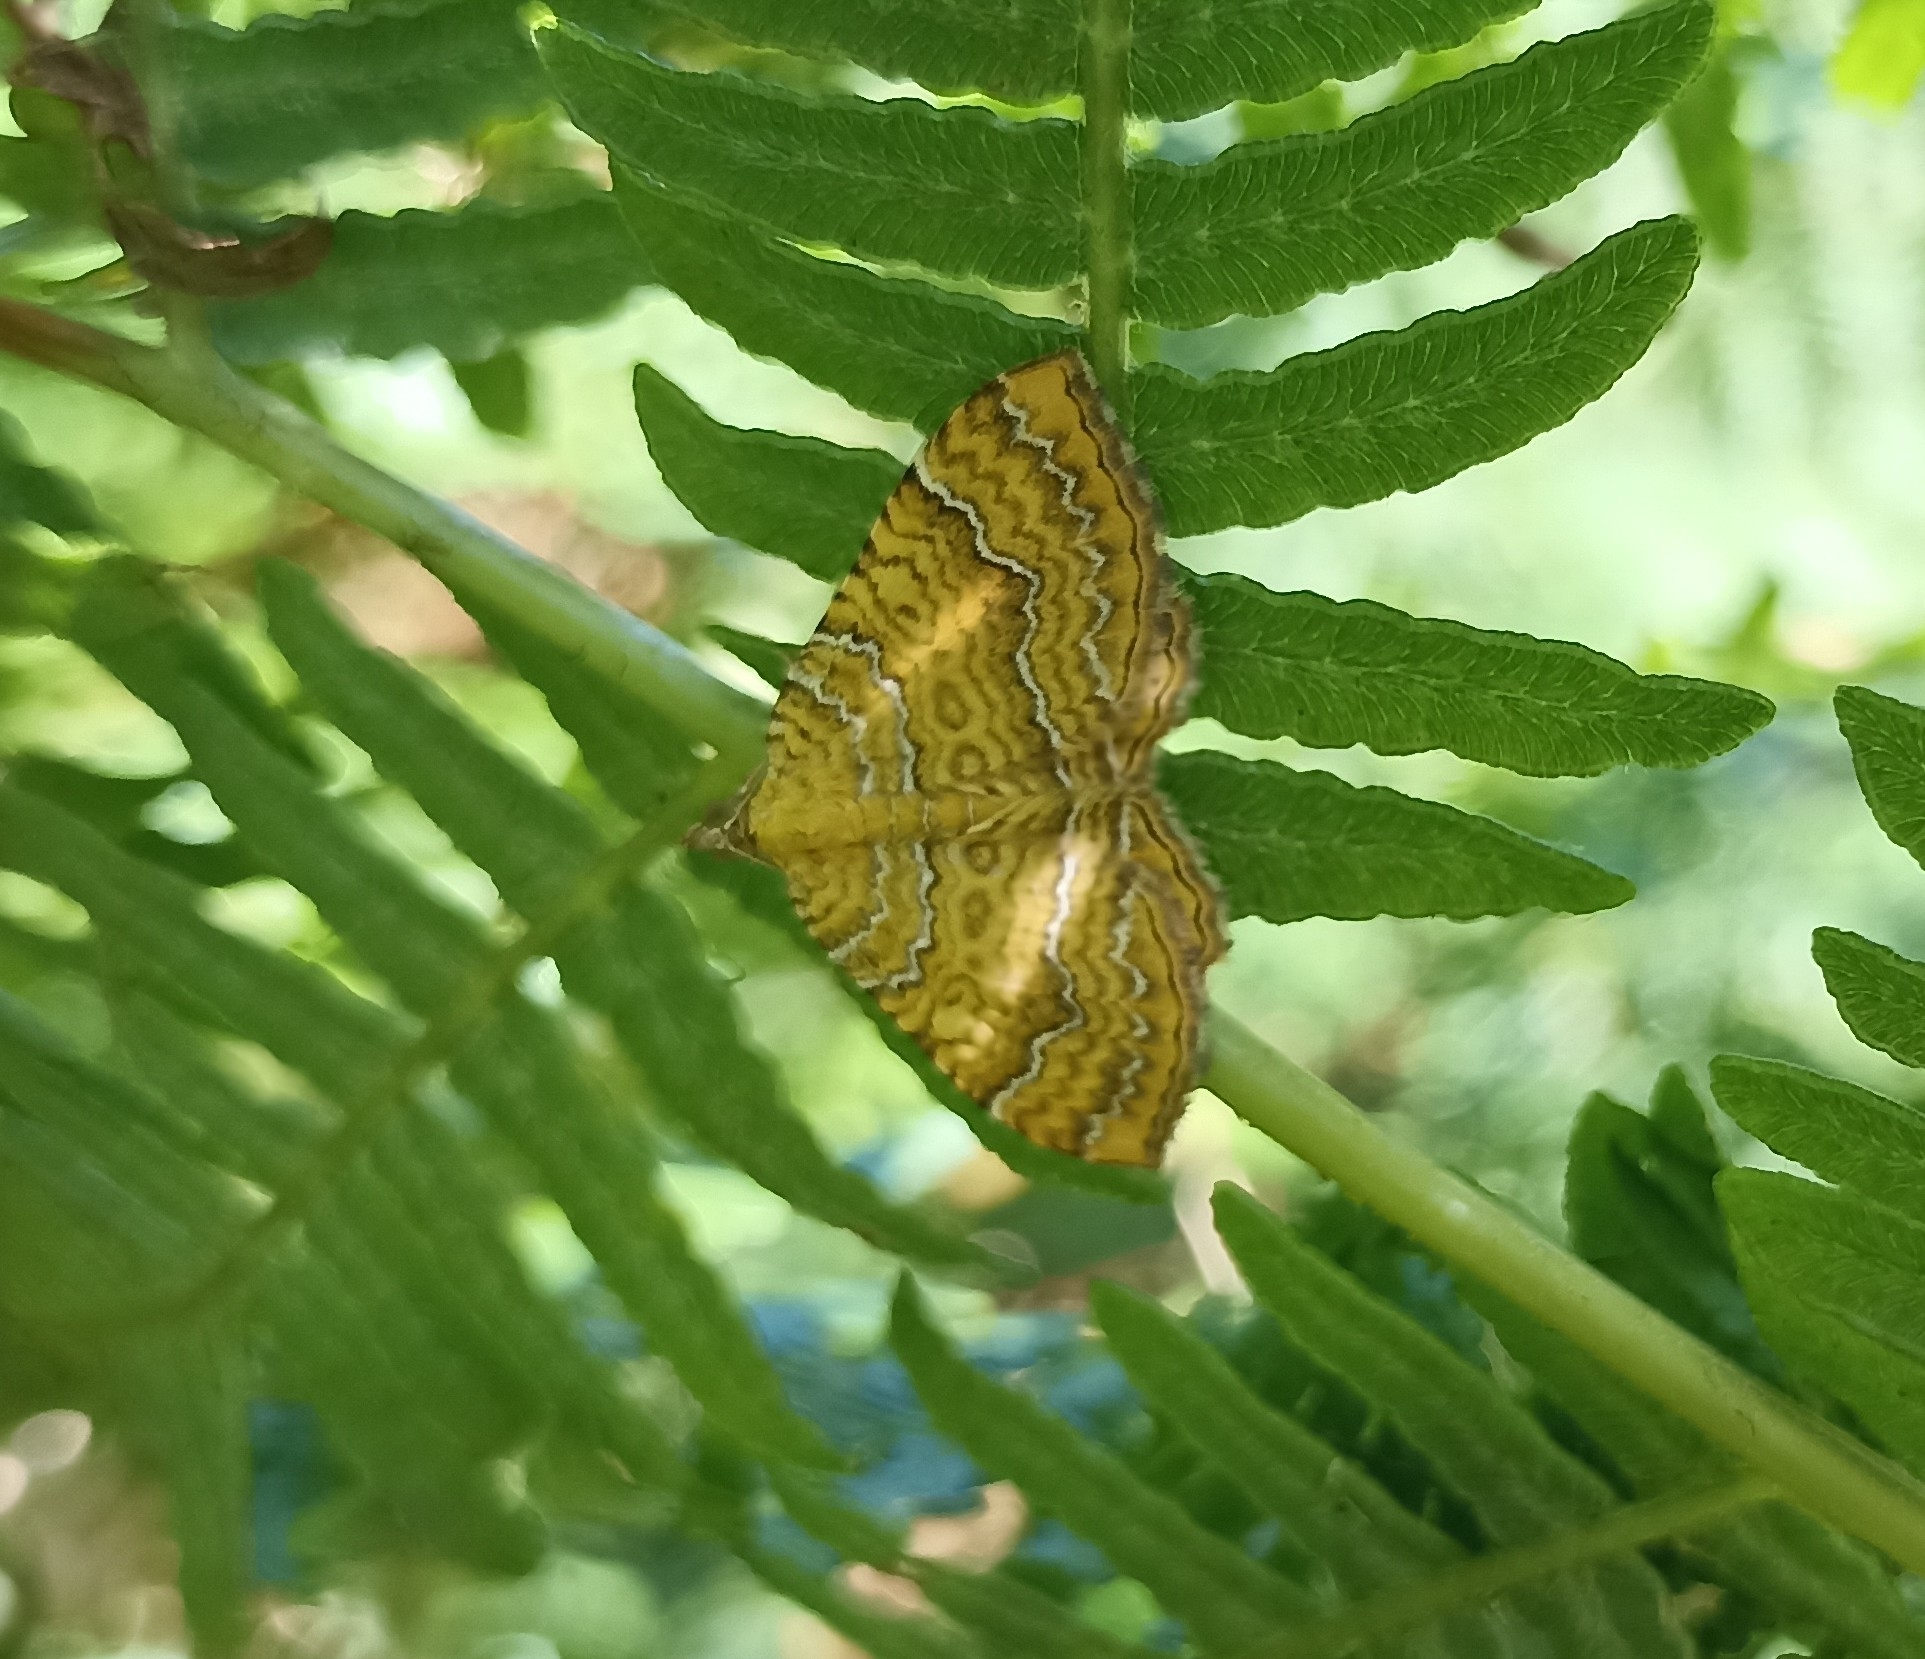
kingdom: Animalia
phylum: Arthropoda
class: Insecta
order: Lepidoptera
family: Geometridae
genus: Camptogramma
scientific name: Camptogramma bilineata
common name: Yellow shell
